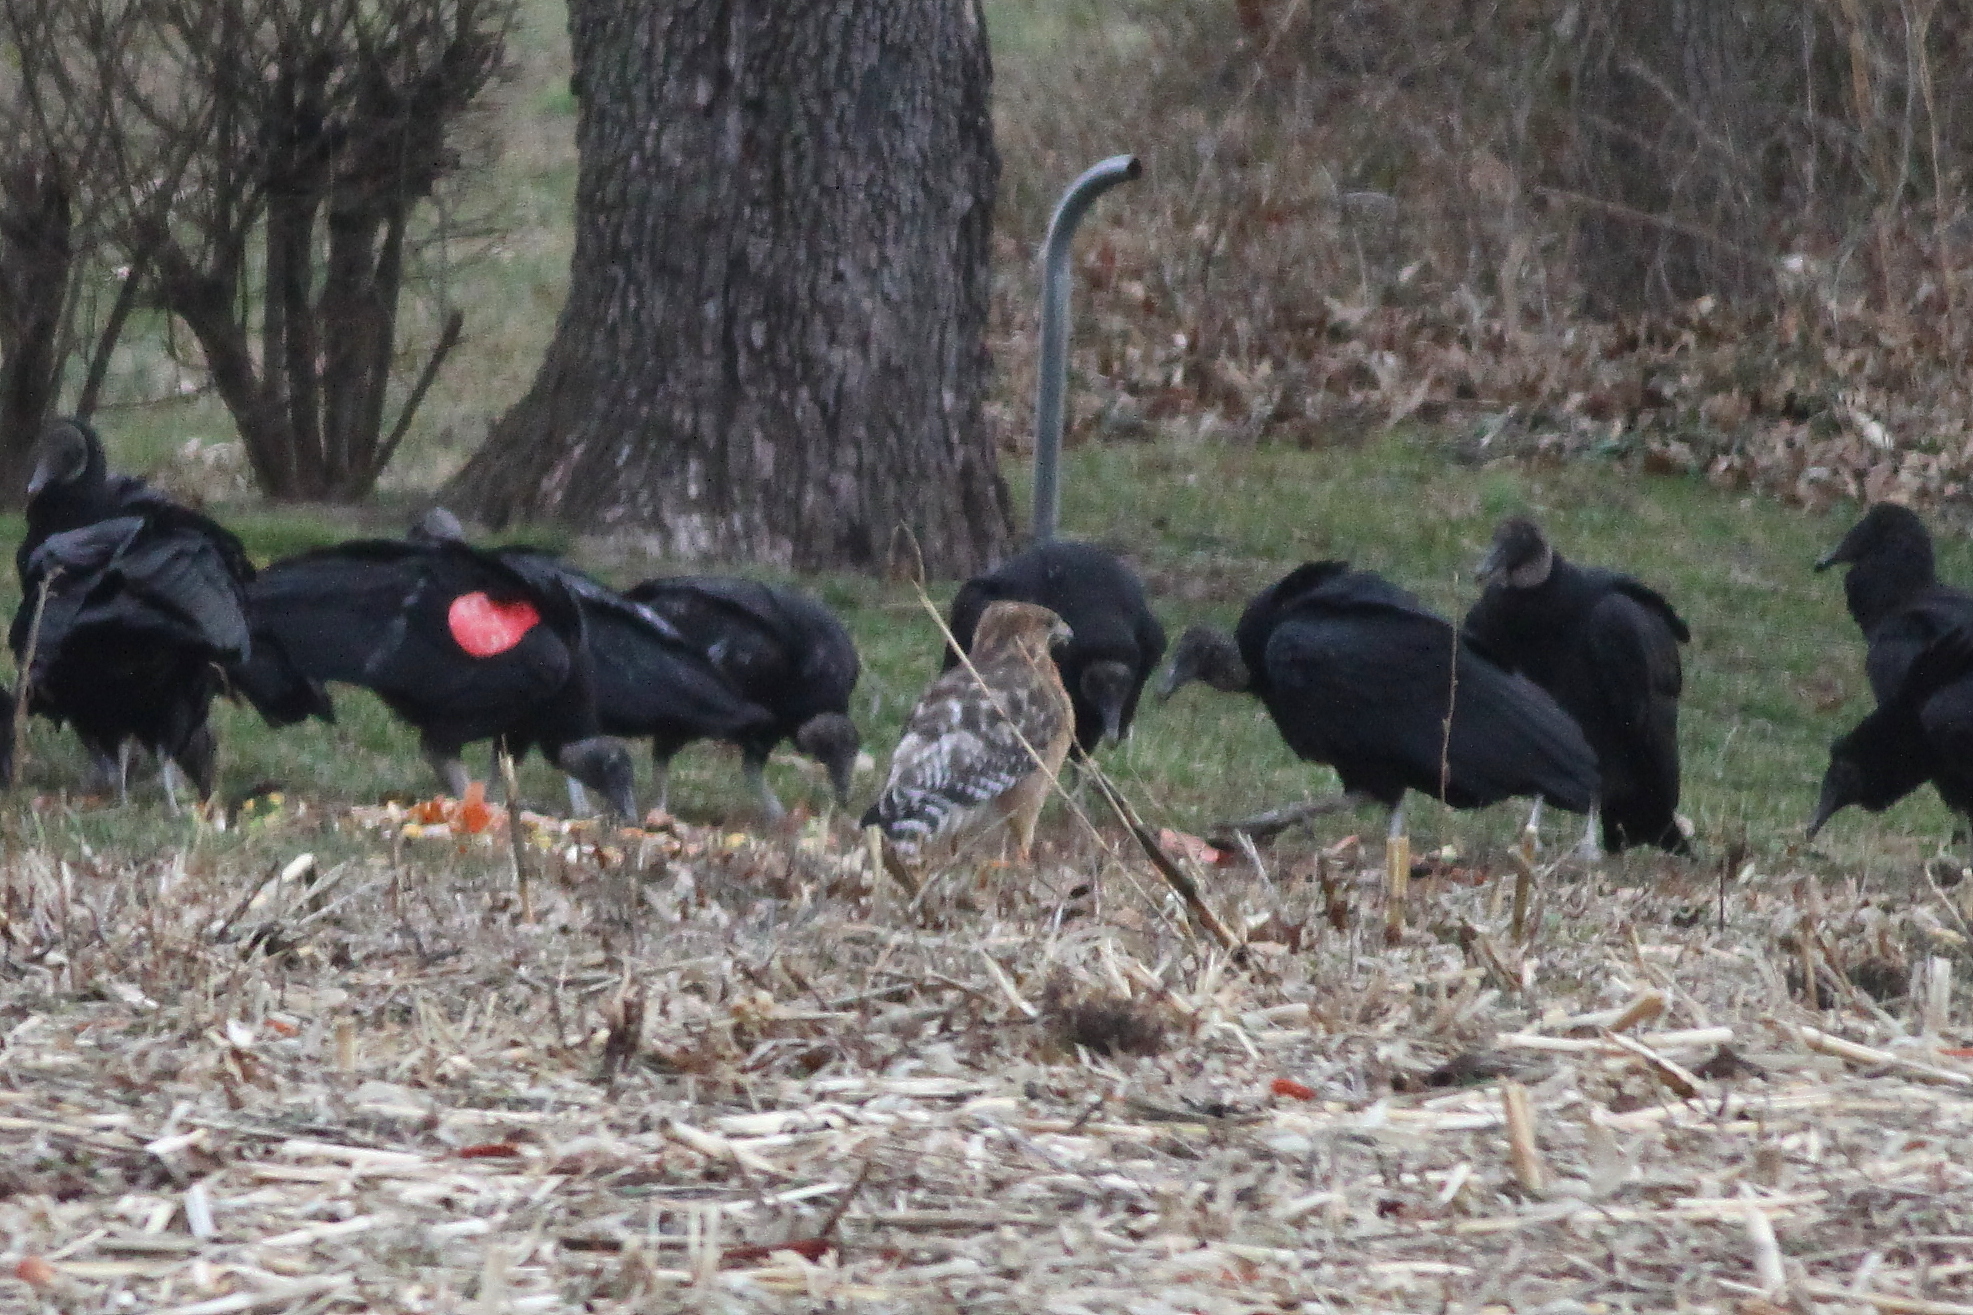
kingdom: Animalia
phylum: Chordata
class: Aves
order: Accipitriformes
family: Accipitridae
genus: Buteo
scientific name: Buteo lineatus
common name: Red-shouldered hawk
